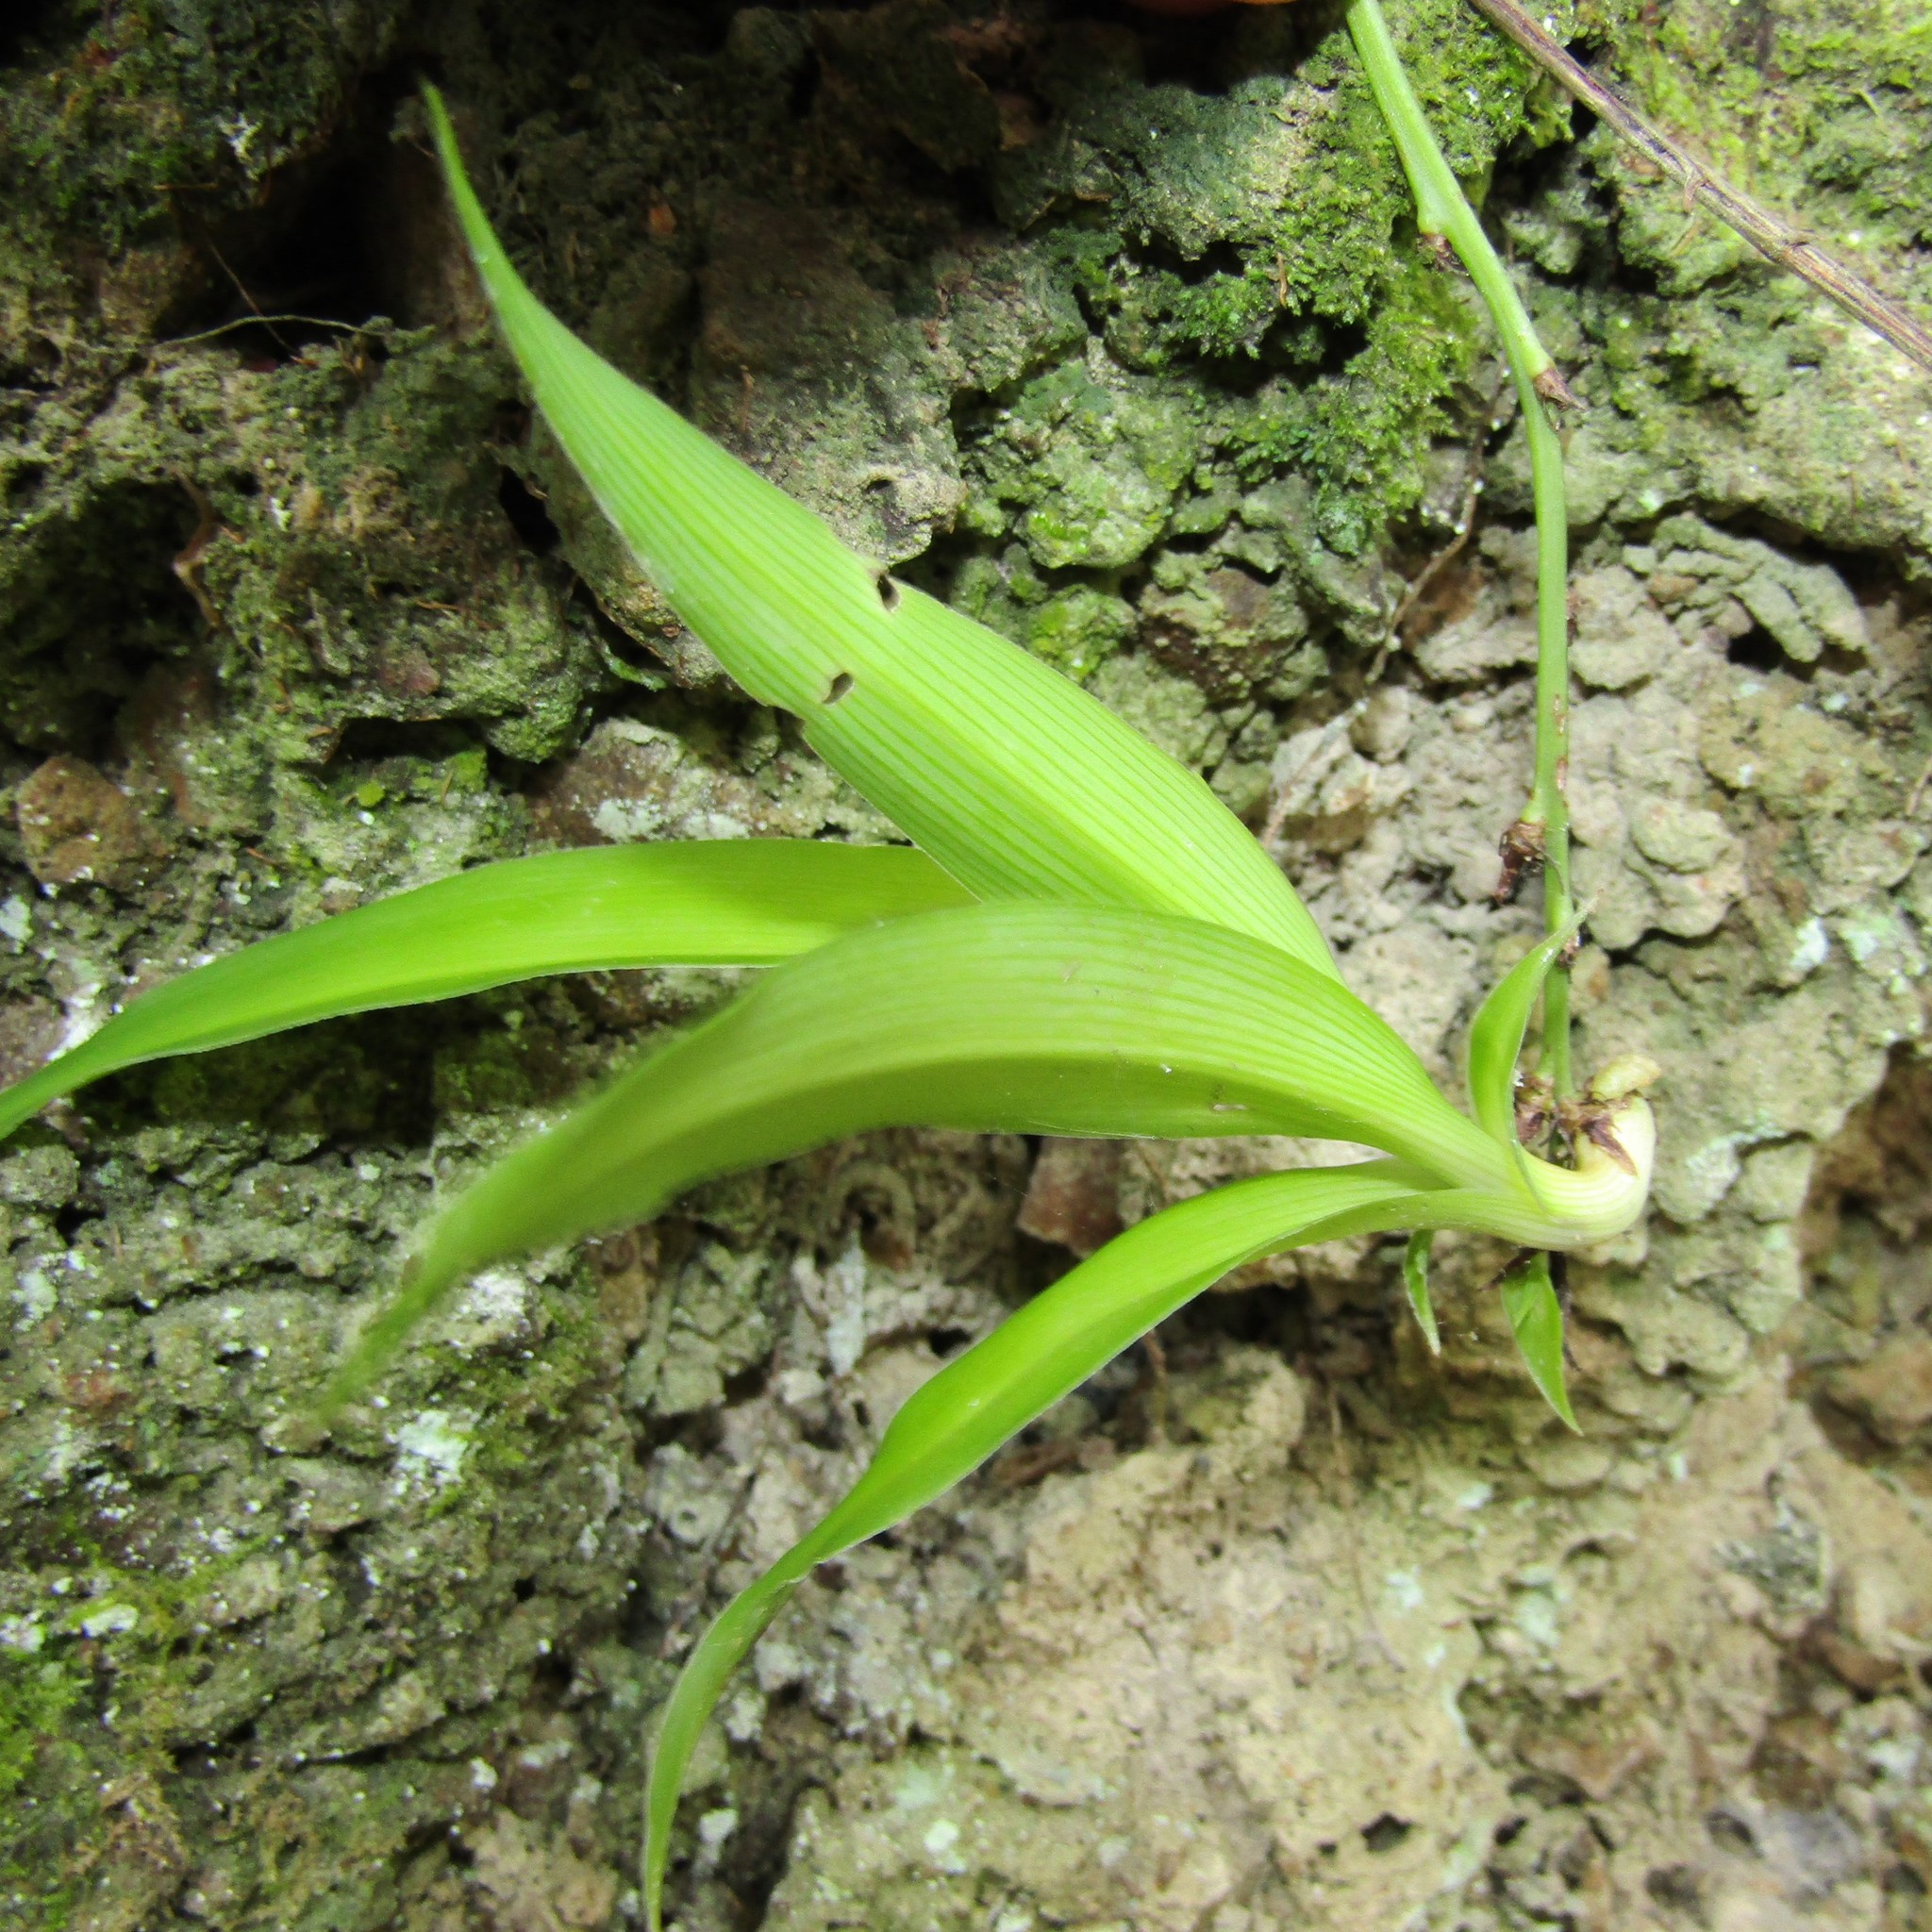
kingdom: Plantae
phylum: Tracheophyta
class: Liliopsida
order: Asparagales
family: Asparagaceae
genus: Chlorophytum
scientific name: Chlorophytum comosum
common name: Spider plant
